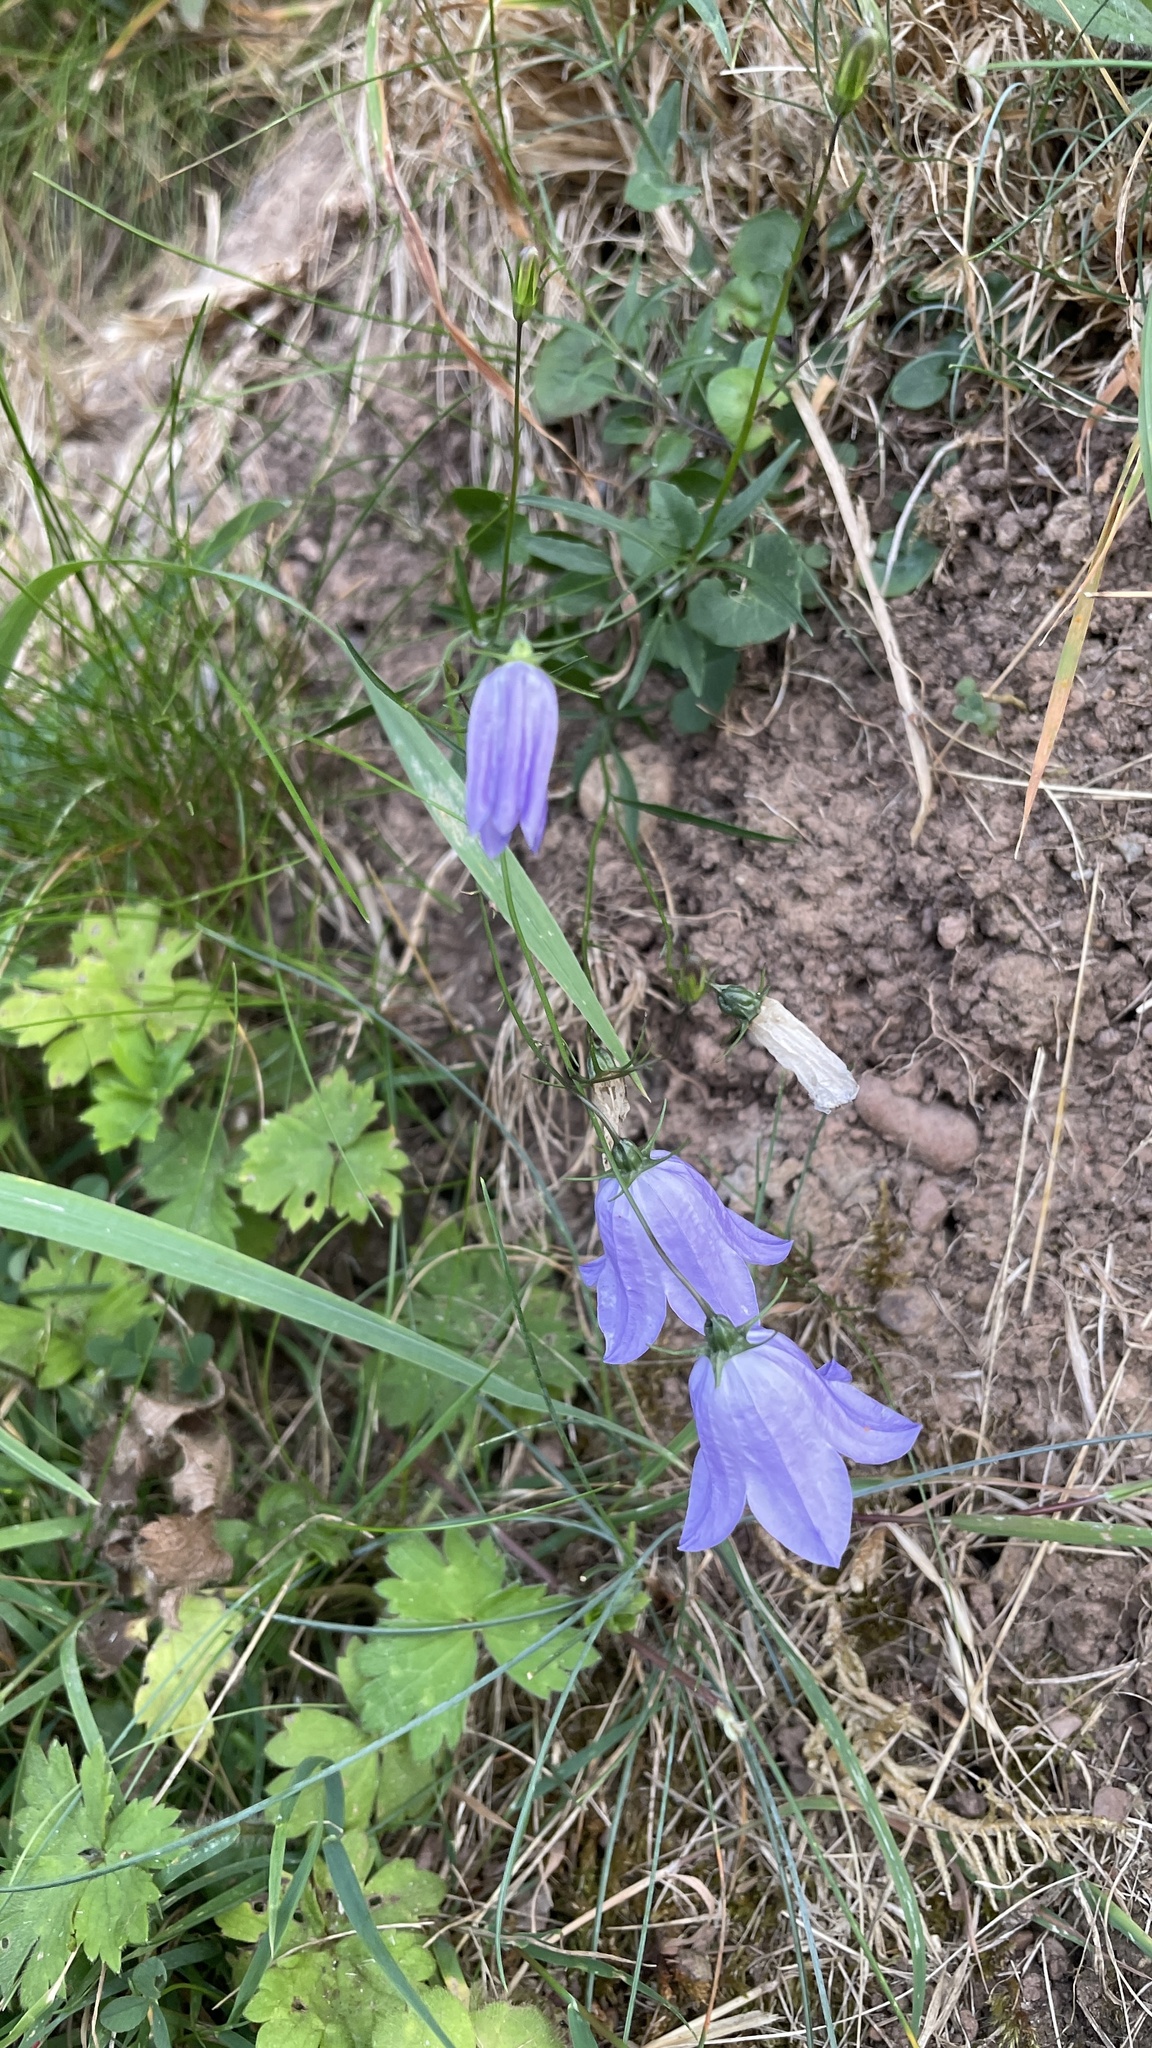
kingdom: Plantae
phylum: Tracheophyta
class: Magnoliopsida
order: Asterales
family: Campanulaceae
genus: Campanula
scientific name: Campanula rotundifolia
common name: Harebell
